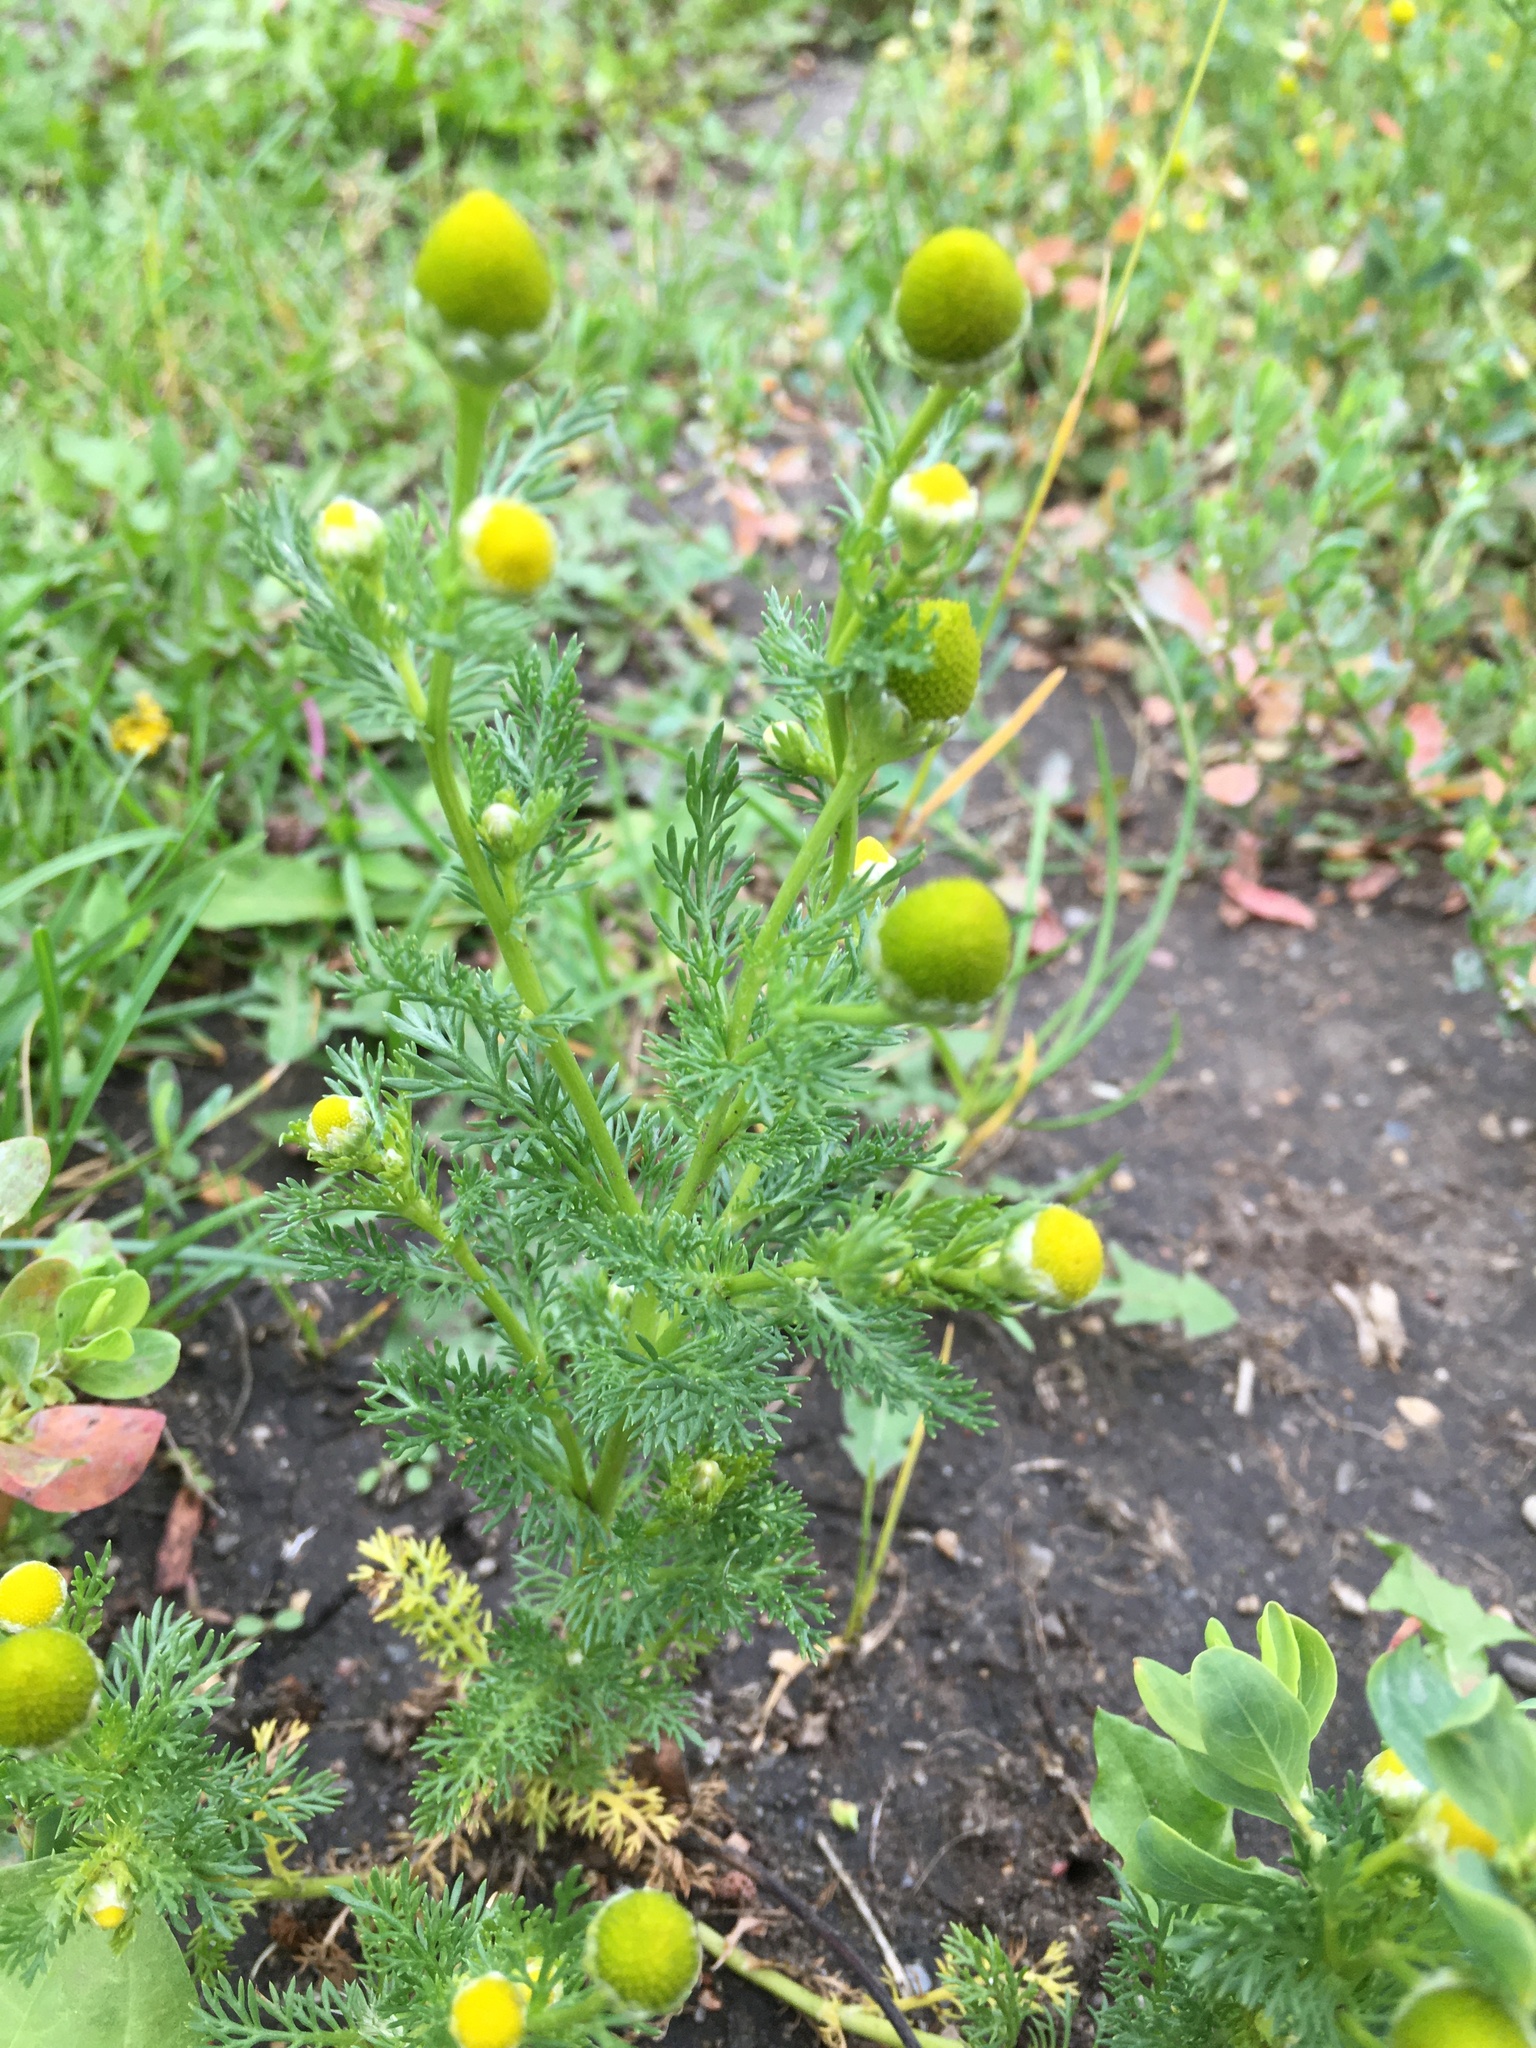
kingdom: Plantae
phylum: Tracheophyta
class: Magnoliopsida
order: Asterales
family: Asteraceae
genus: Matricaria
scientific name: Matricaria discoidea
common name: Disc mayweed
